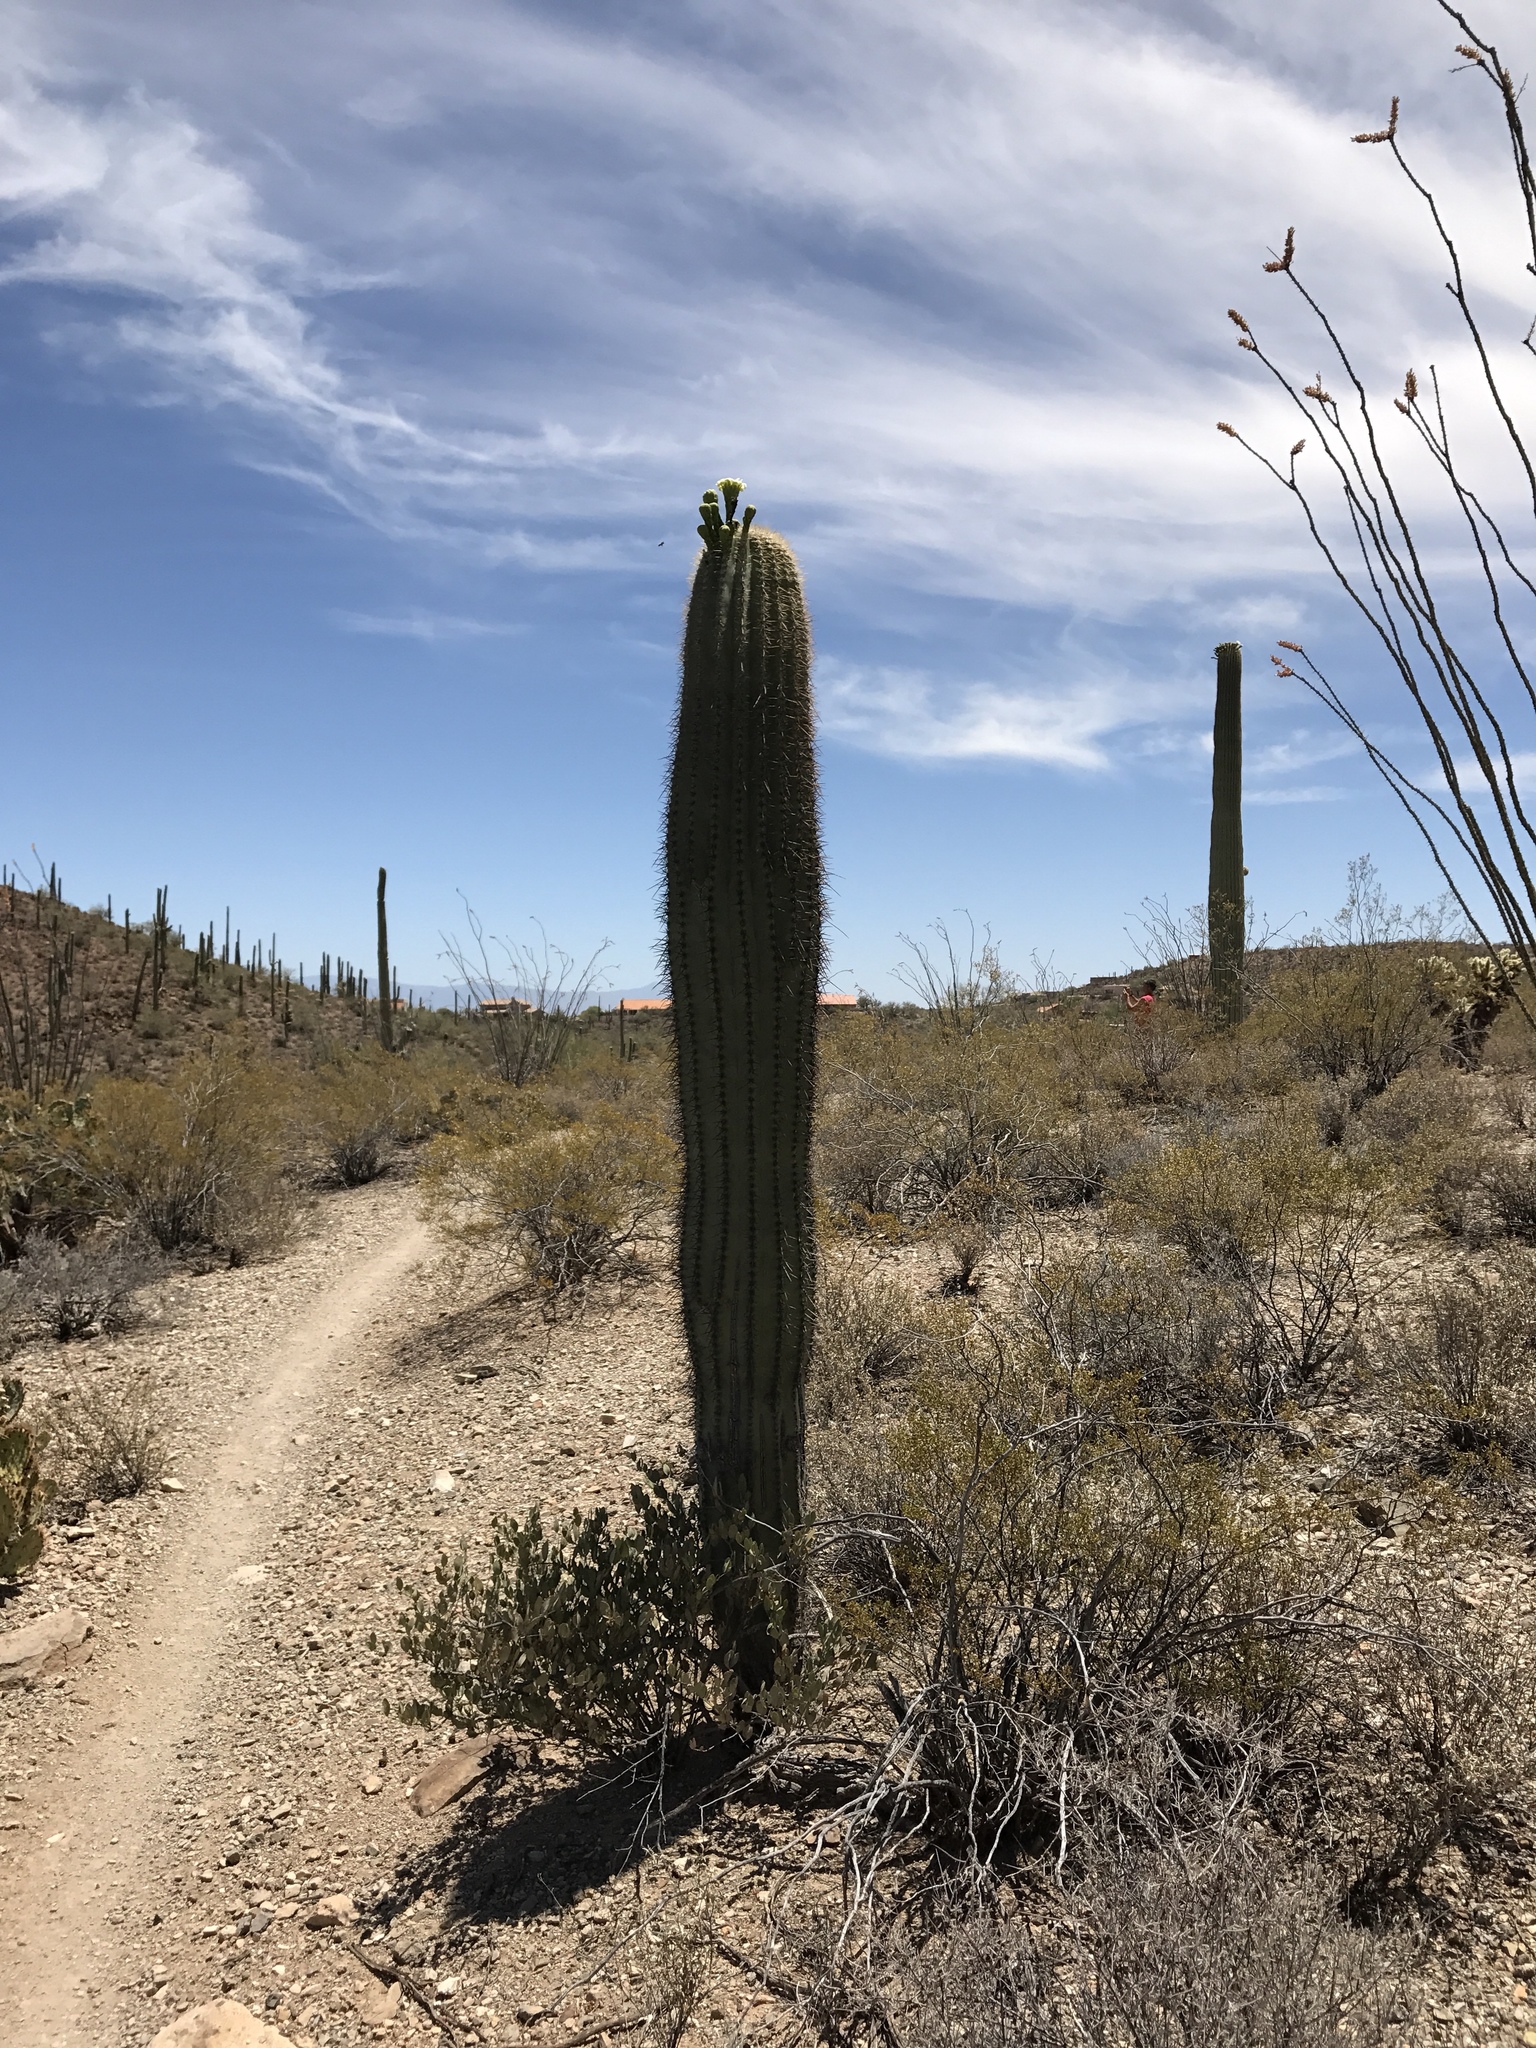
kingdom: Plantae
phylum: Tracheophyta
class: Magnoliopsida
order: Caryophyllales
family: Cactaceae
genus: Carnegiea
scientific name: Carnegiea gigantea
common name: Saguaro
